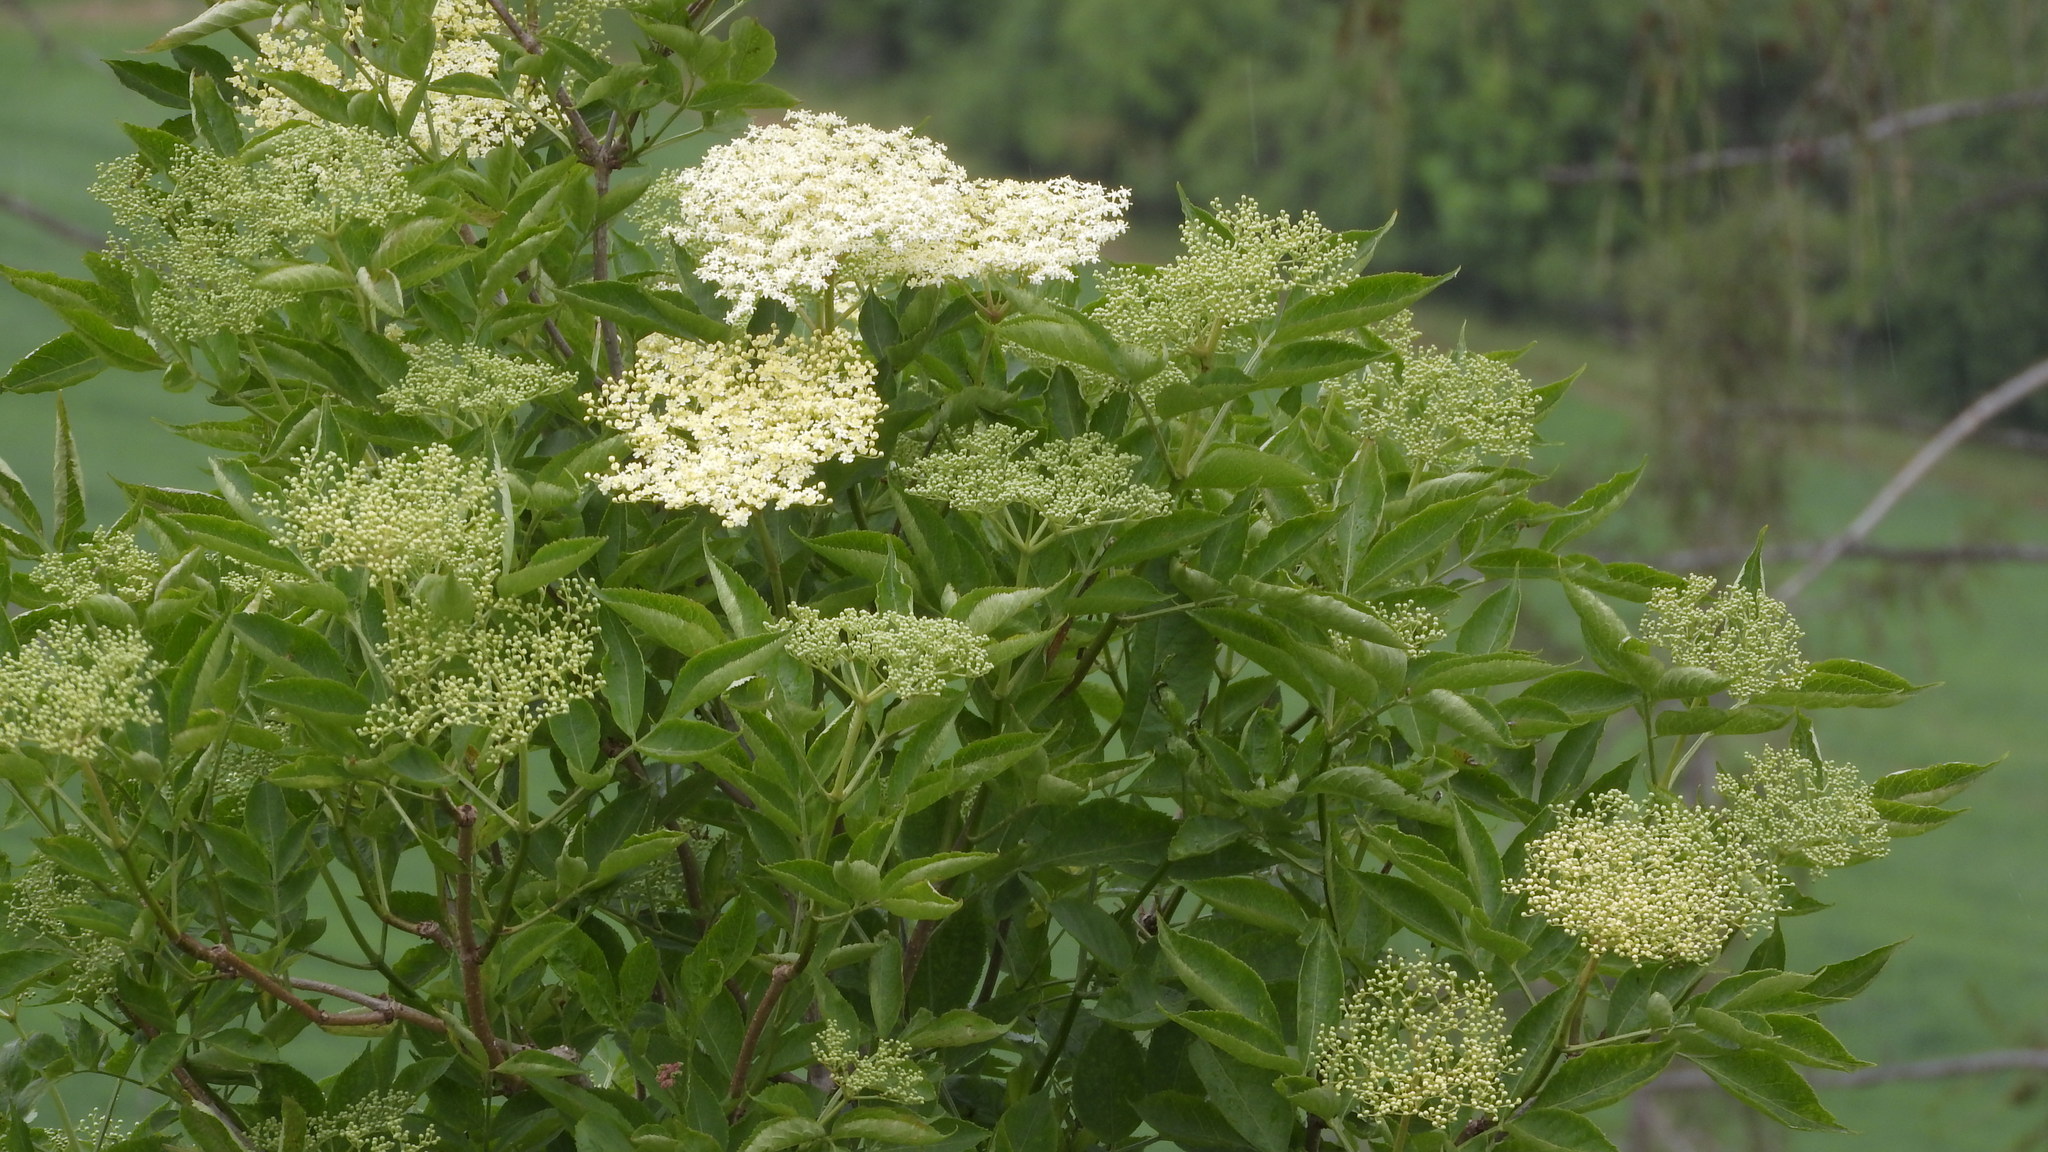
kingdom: Plantae
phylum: Tracheophyta
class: Magnoliopsida
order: Dipsacales
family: Viburnaceae
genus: Sambucus
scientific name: Sambucus nigra
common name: Elder
